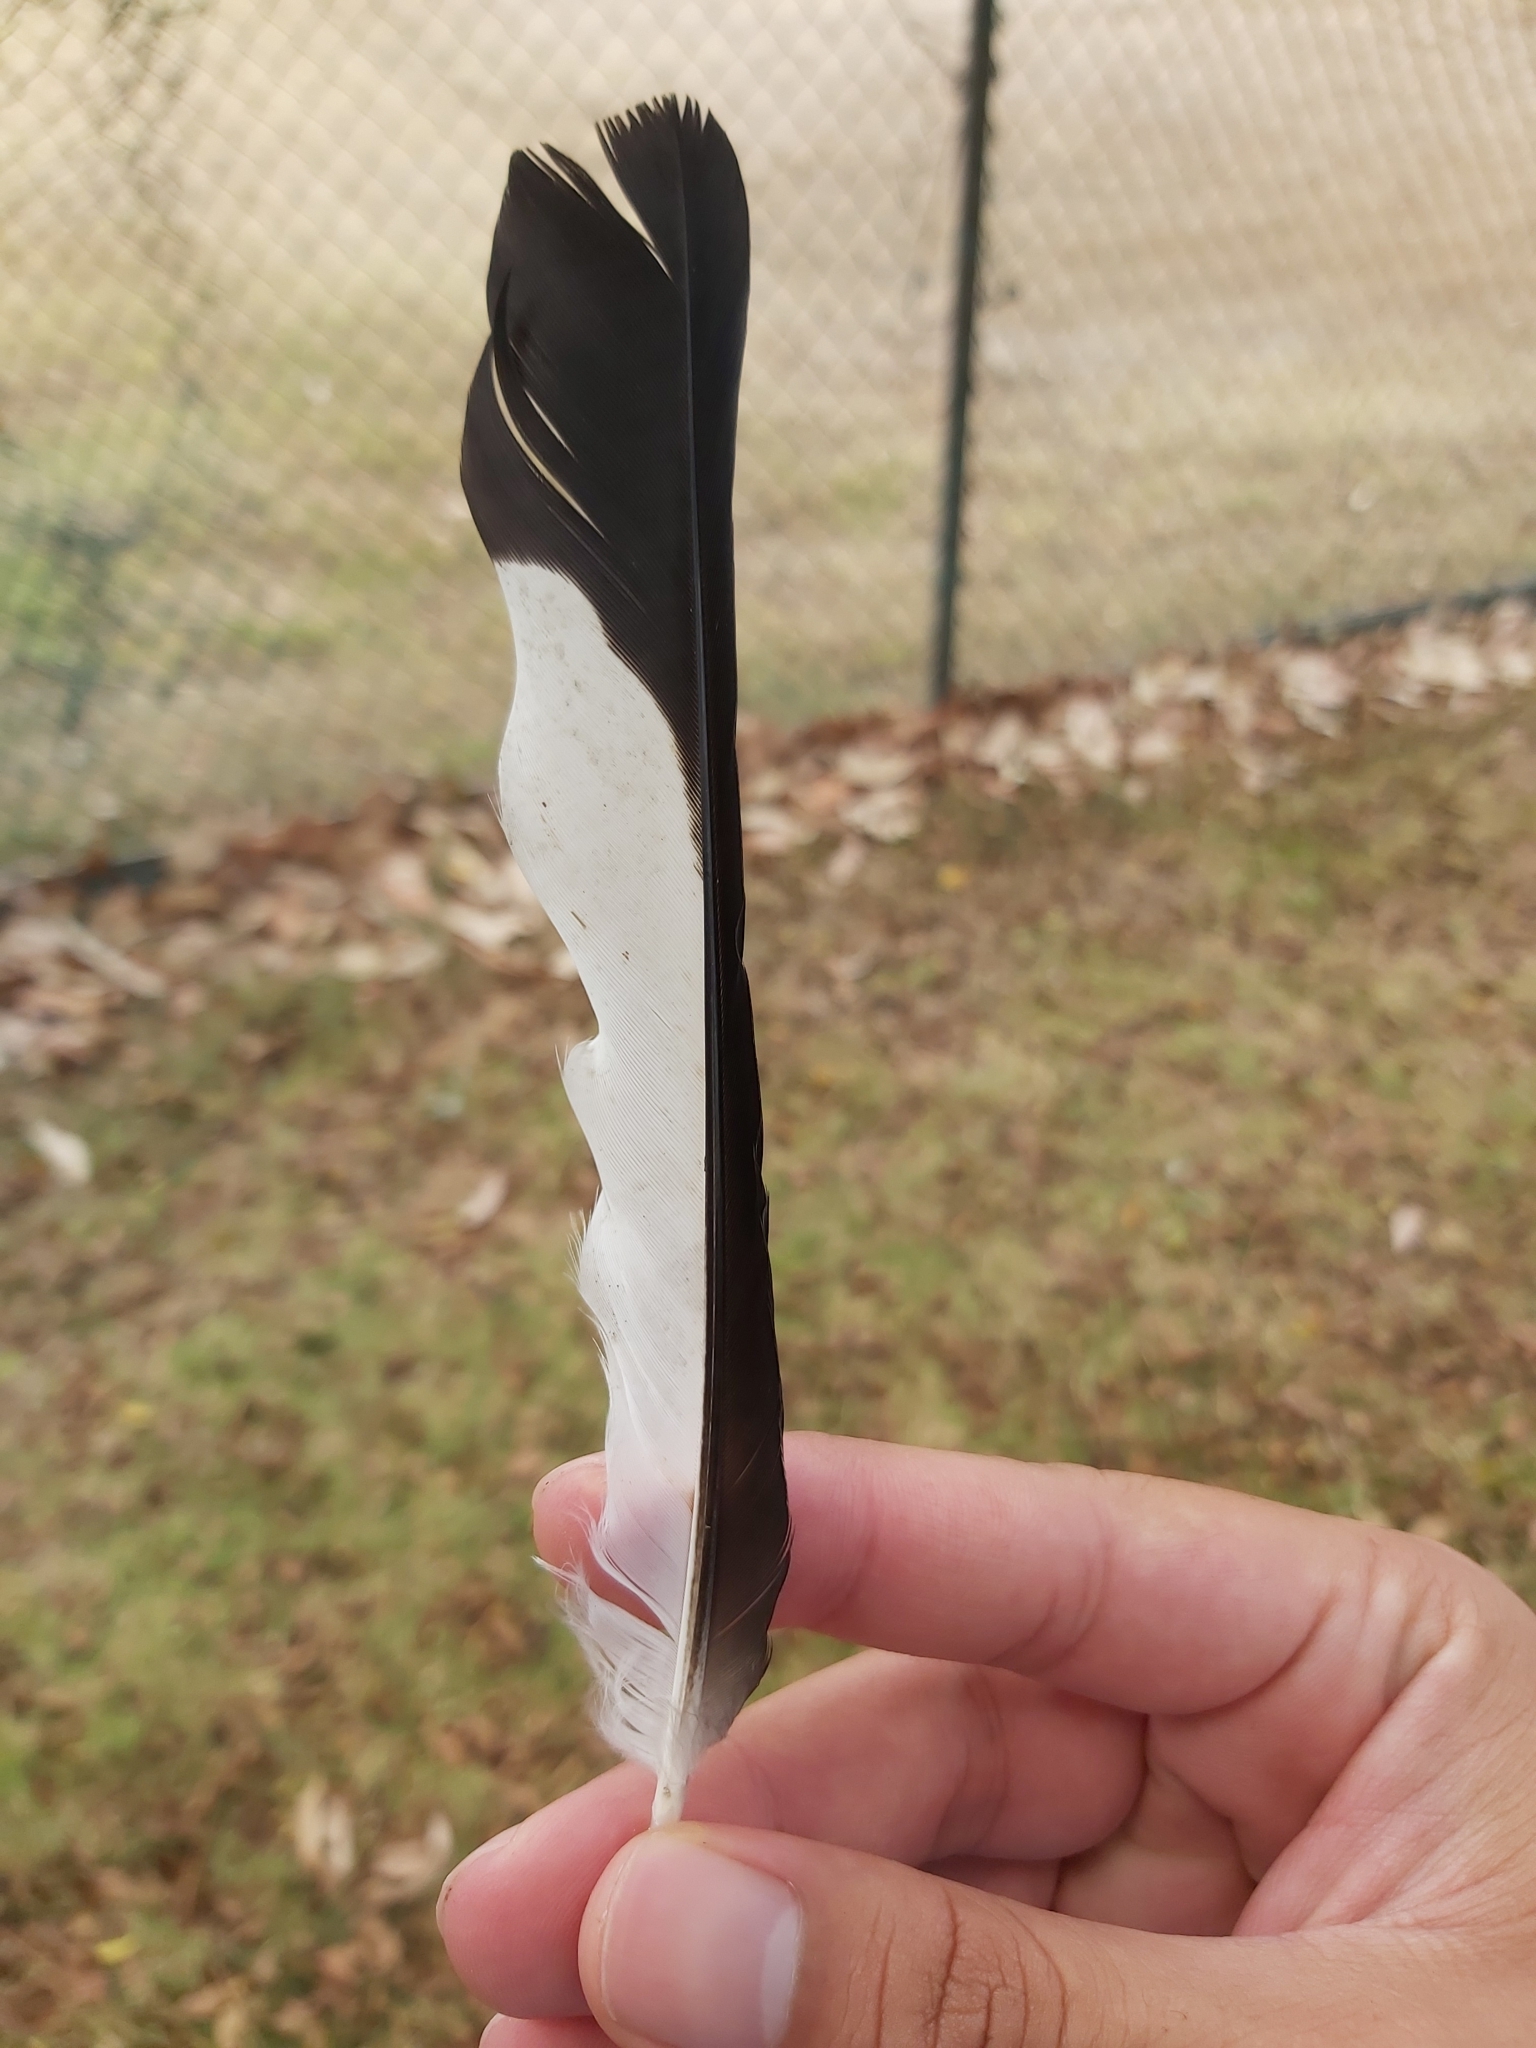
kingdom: Animalia
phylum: Chordata
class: Aves
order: Passeriformes
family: Cracticidae
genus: Gymnorhina
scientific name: Gymnorhina tibicen
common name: Australian magpie
